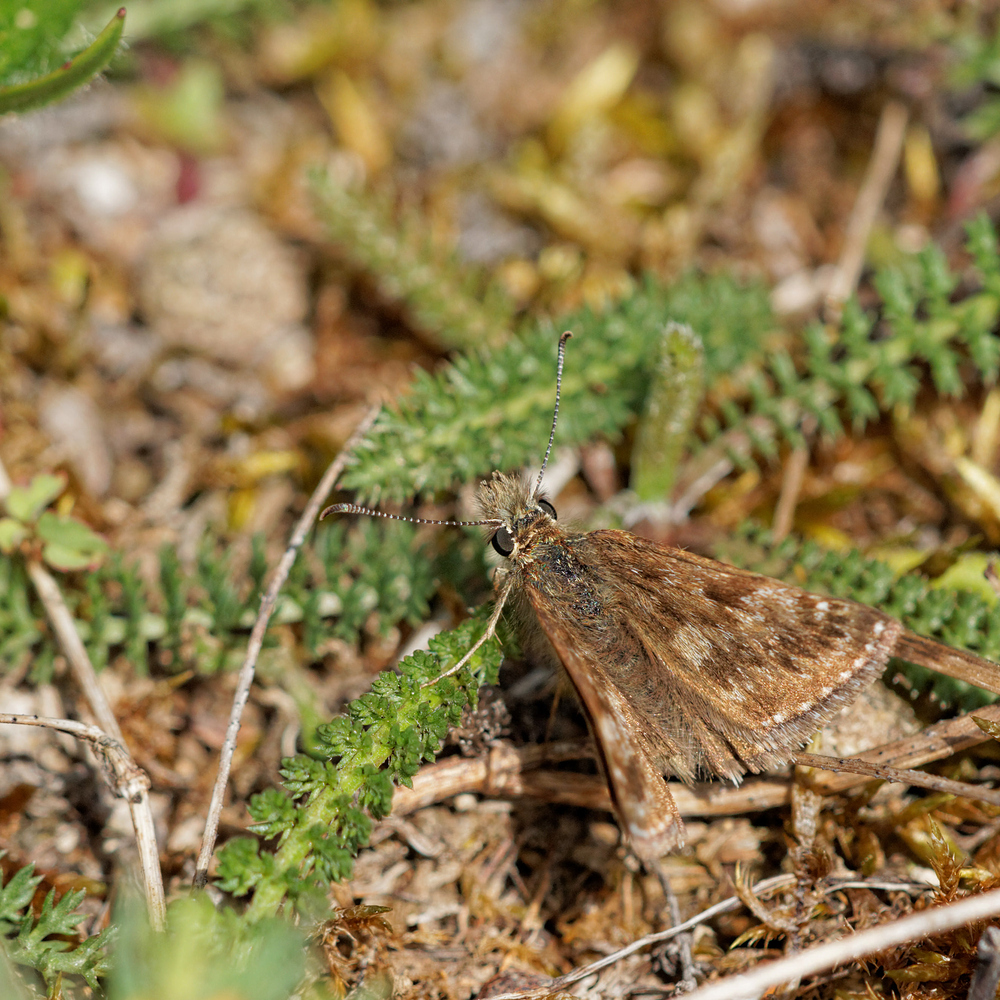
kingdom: Animalia
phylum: Arthropoda
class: Insecta
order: Lepidoptera
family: Hesperiidae
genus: Erynnis
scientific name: Erynnis tages
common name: Dingy skipper
